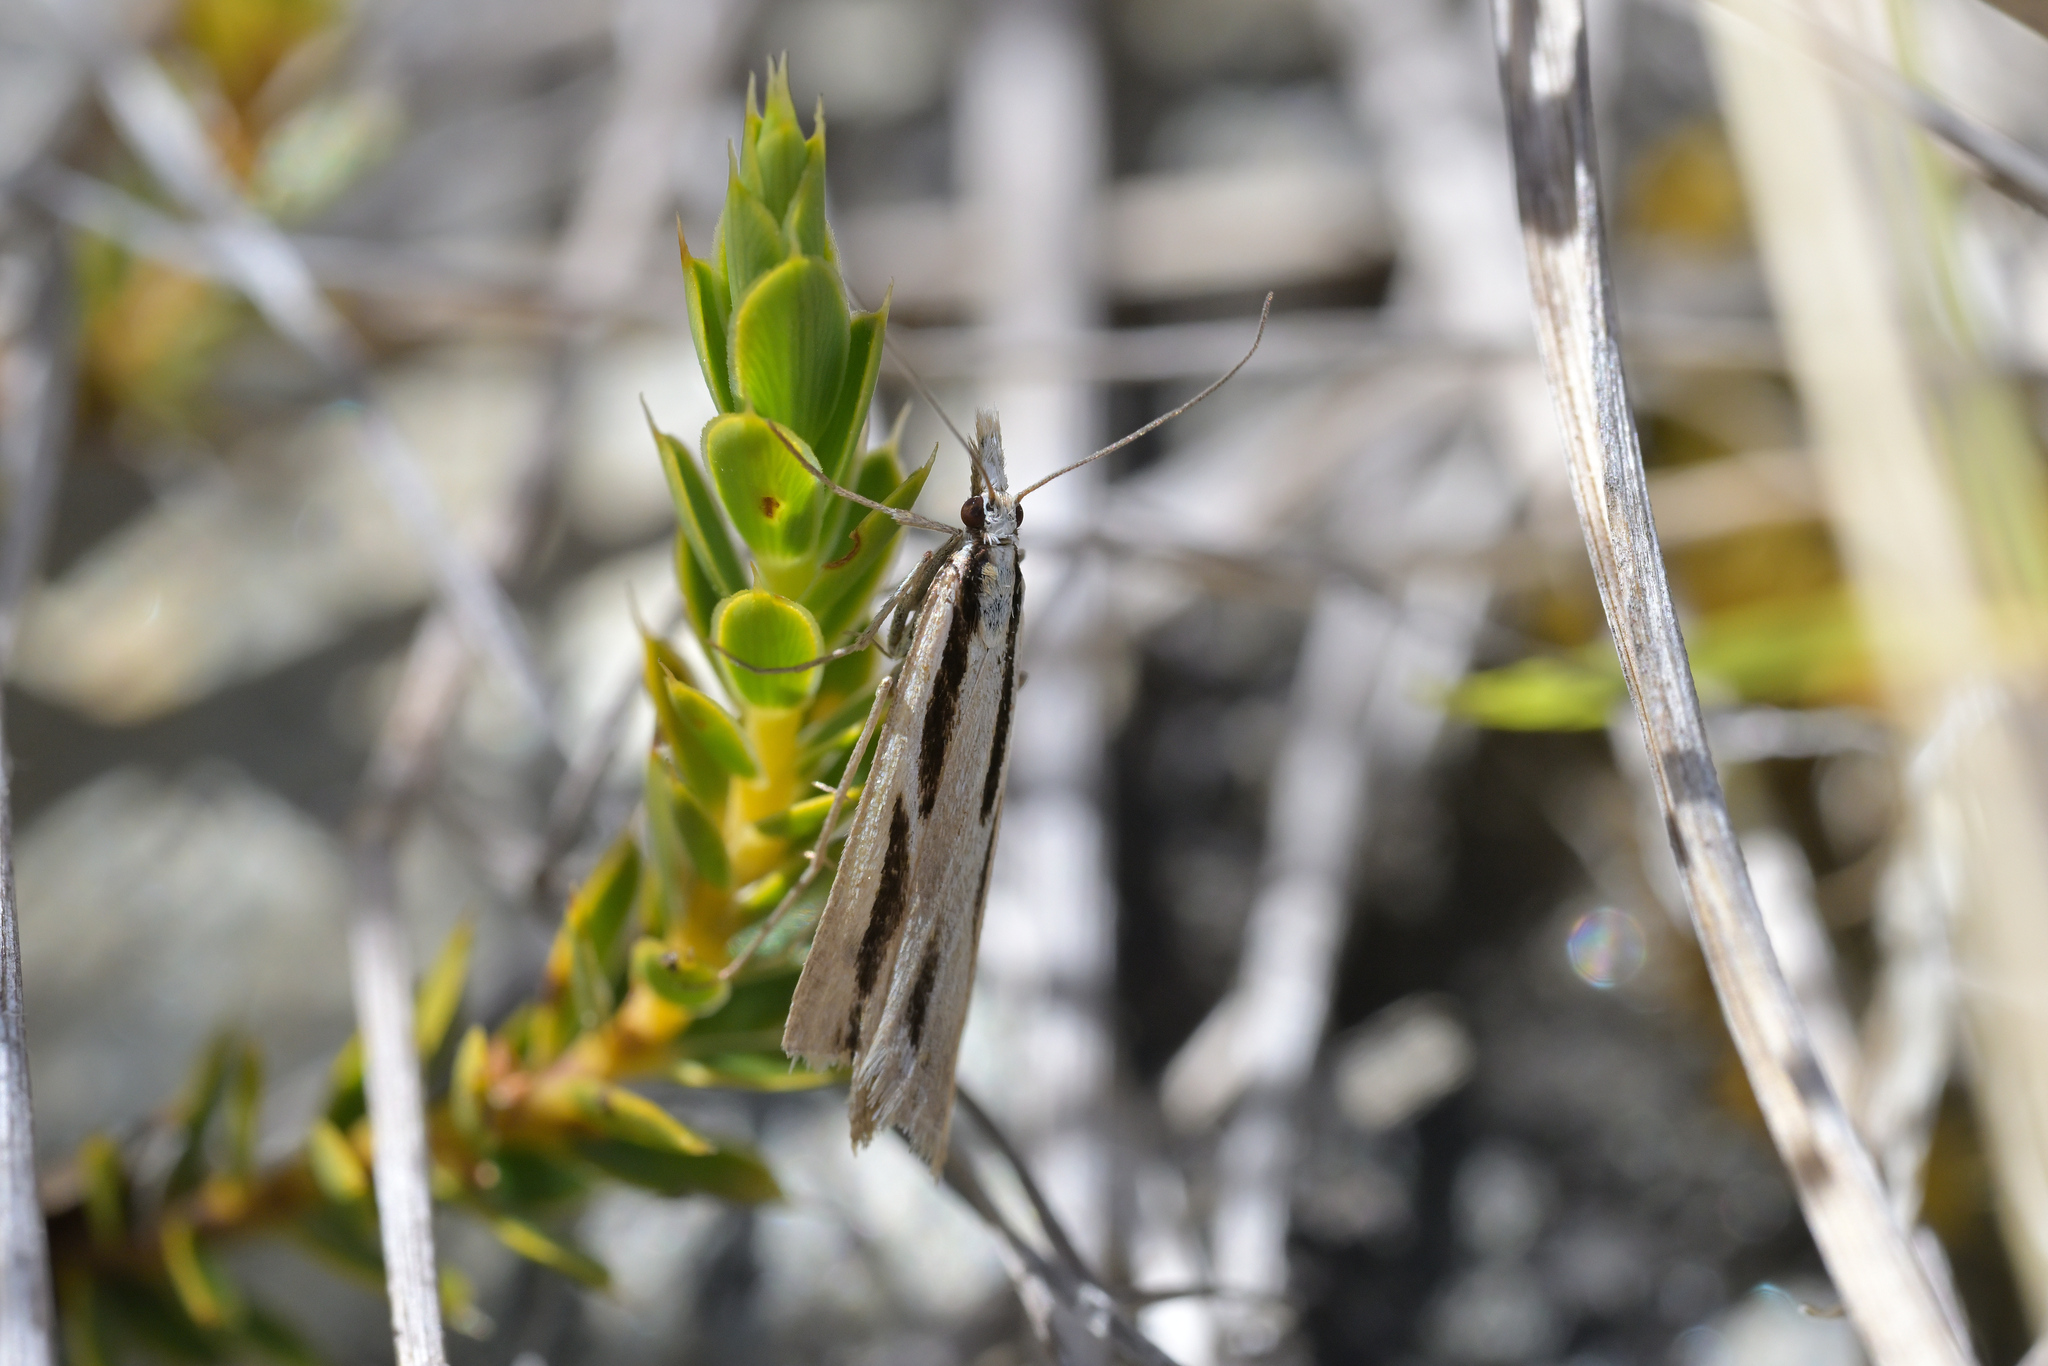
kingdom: Animalia
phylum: Arthropoda
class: Insecta
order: Lepidoptera
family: Crambidae
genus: Eudonia
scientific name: Eudonia trivirgata
